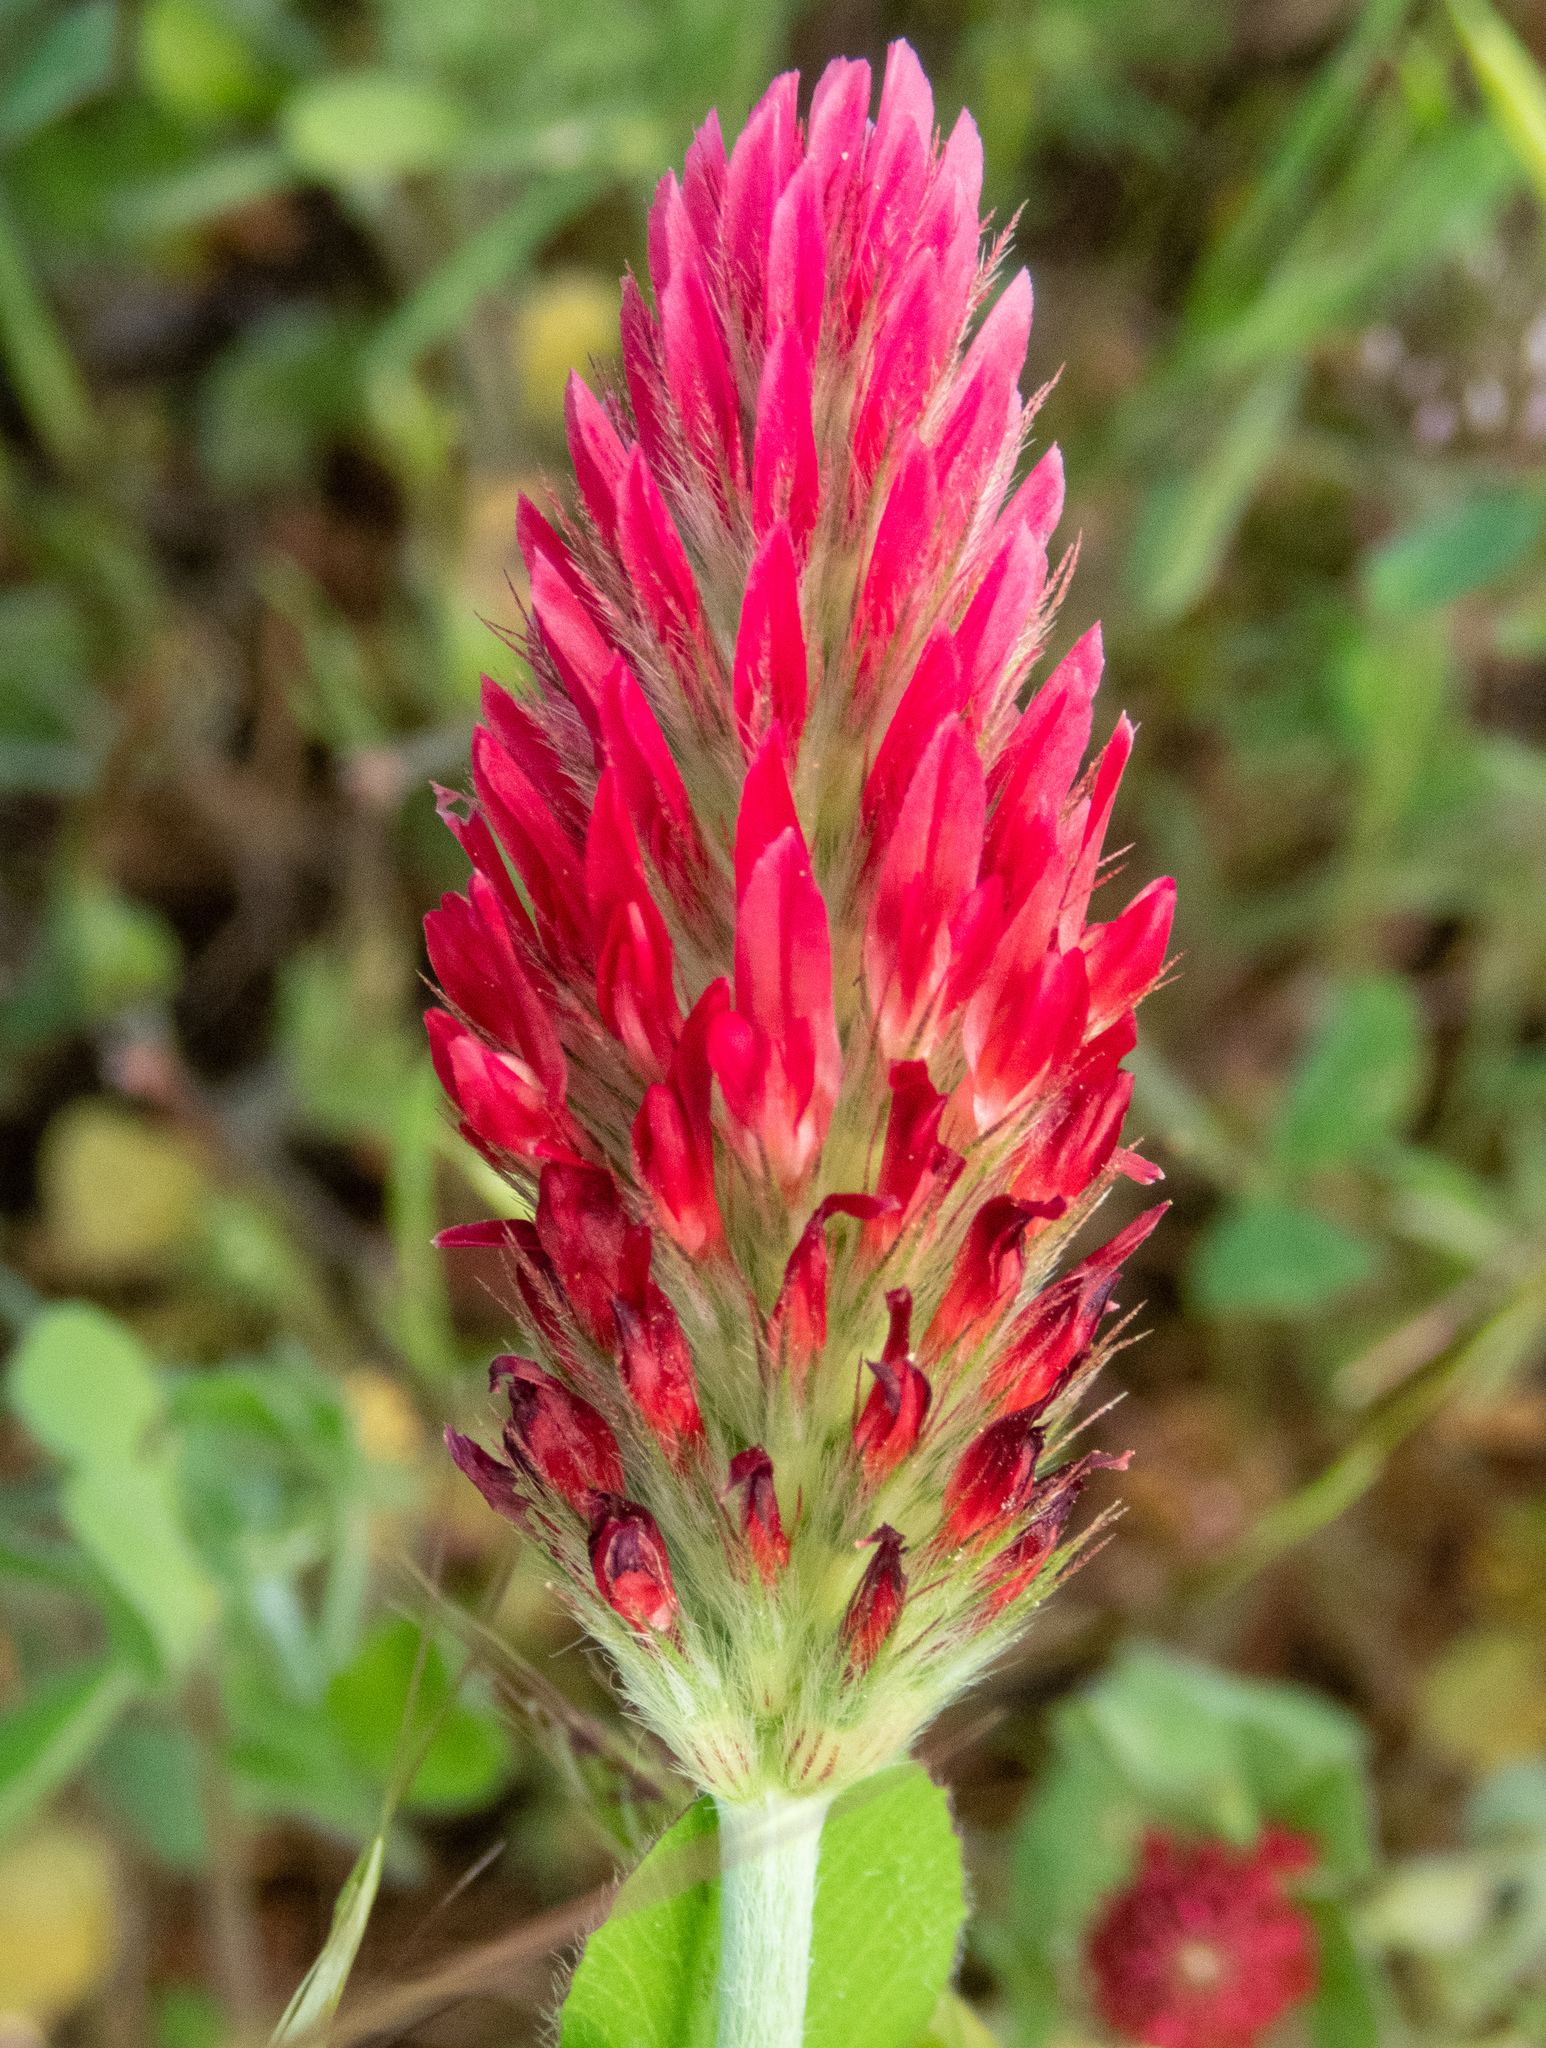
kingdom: Plantae
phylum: Tracheophyta
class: Magnoliopsida
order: Fabales
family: Fabaceae
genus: Trifolium
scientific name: Trifolium incarnatum
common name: Crimson clover
